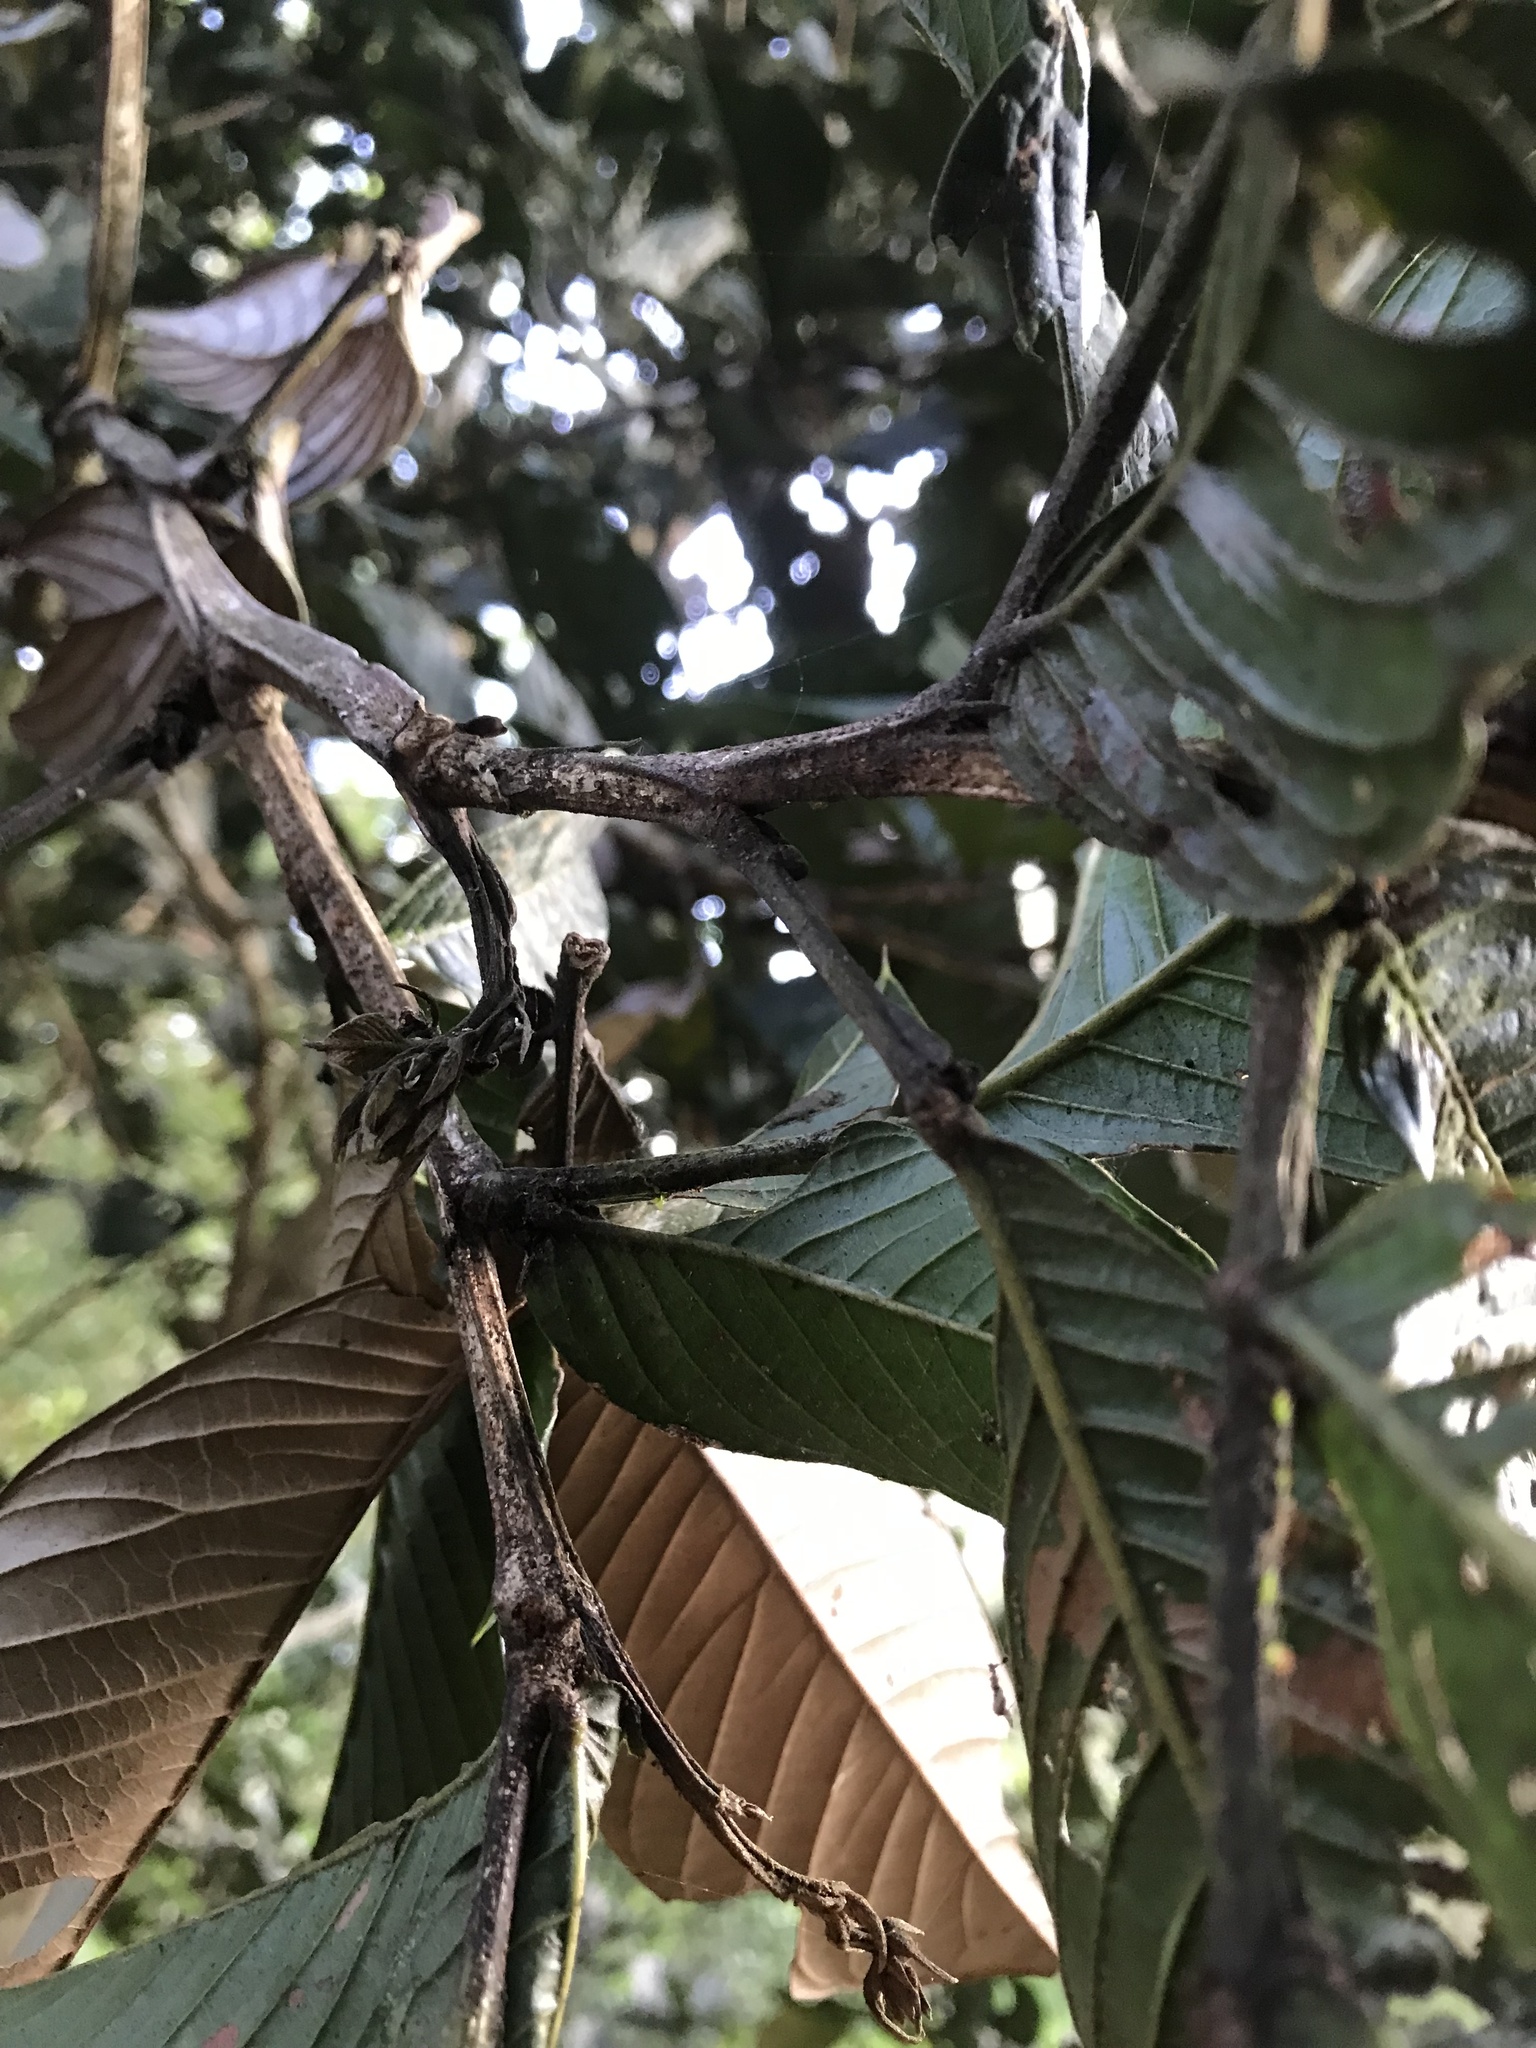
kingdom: Plantae
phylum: Tracheophyta
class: Magnoliopsida
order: Fabales
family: Fabaceae
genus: Inga
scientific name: Inga spectabilis
